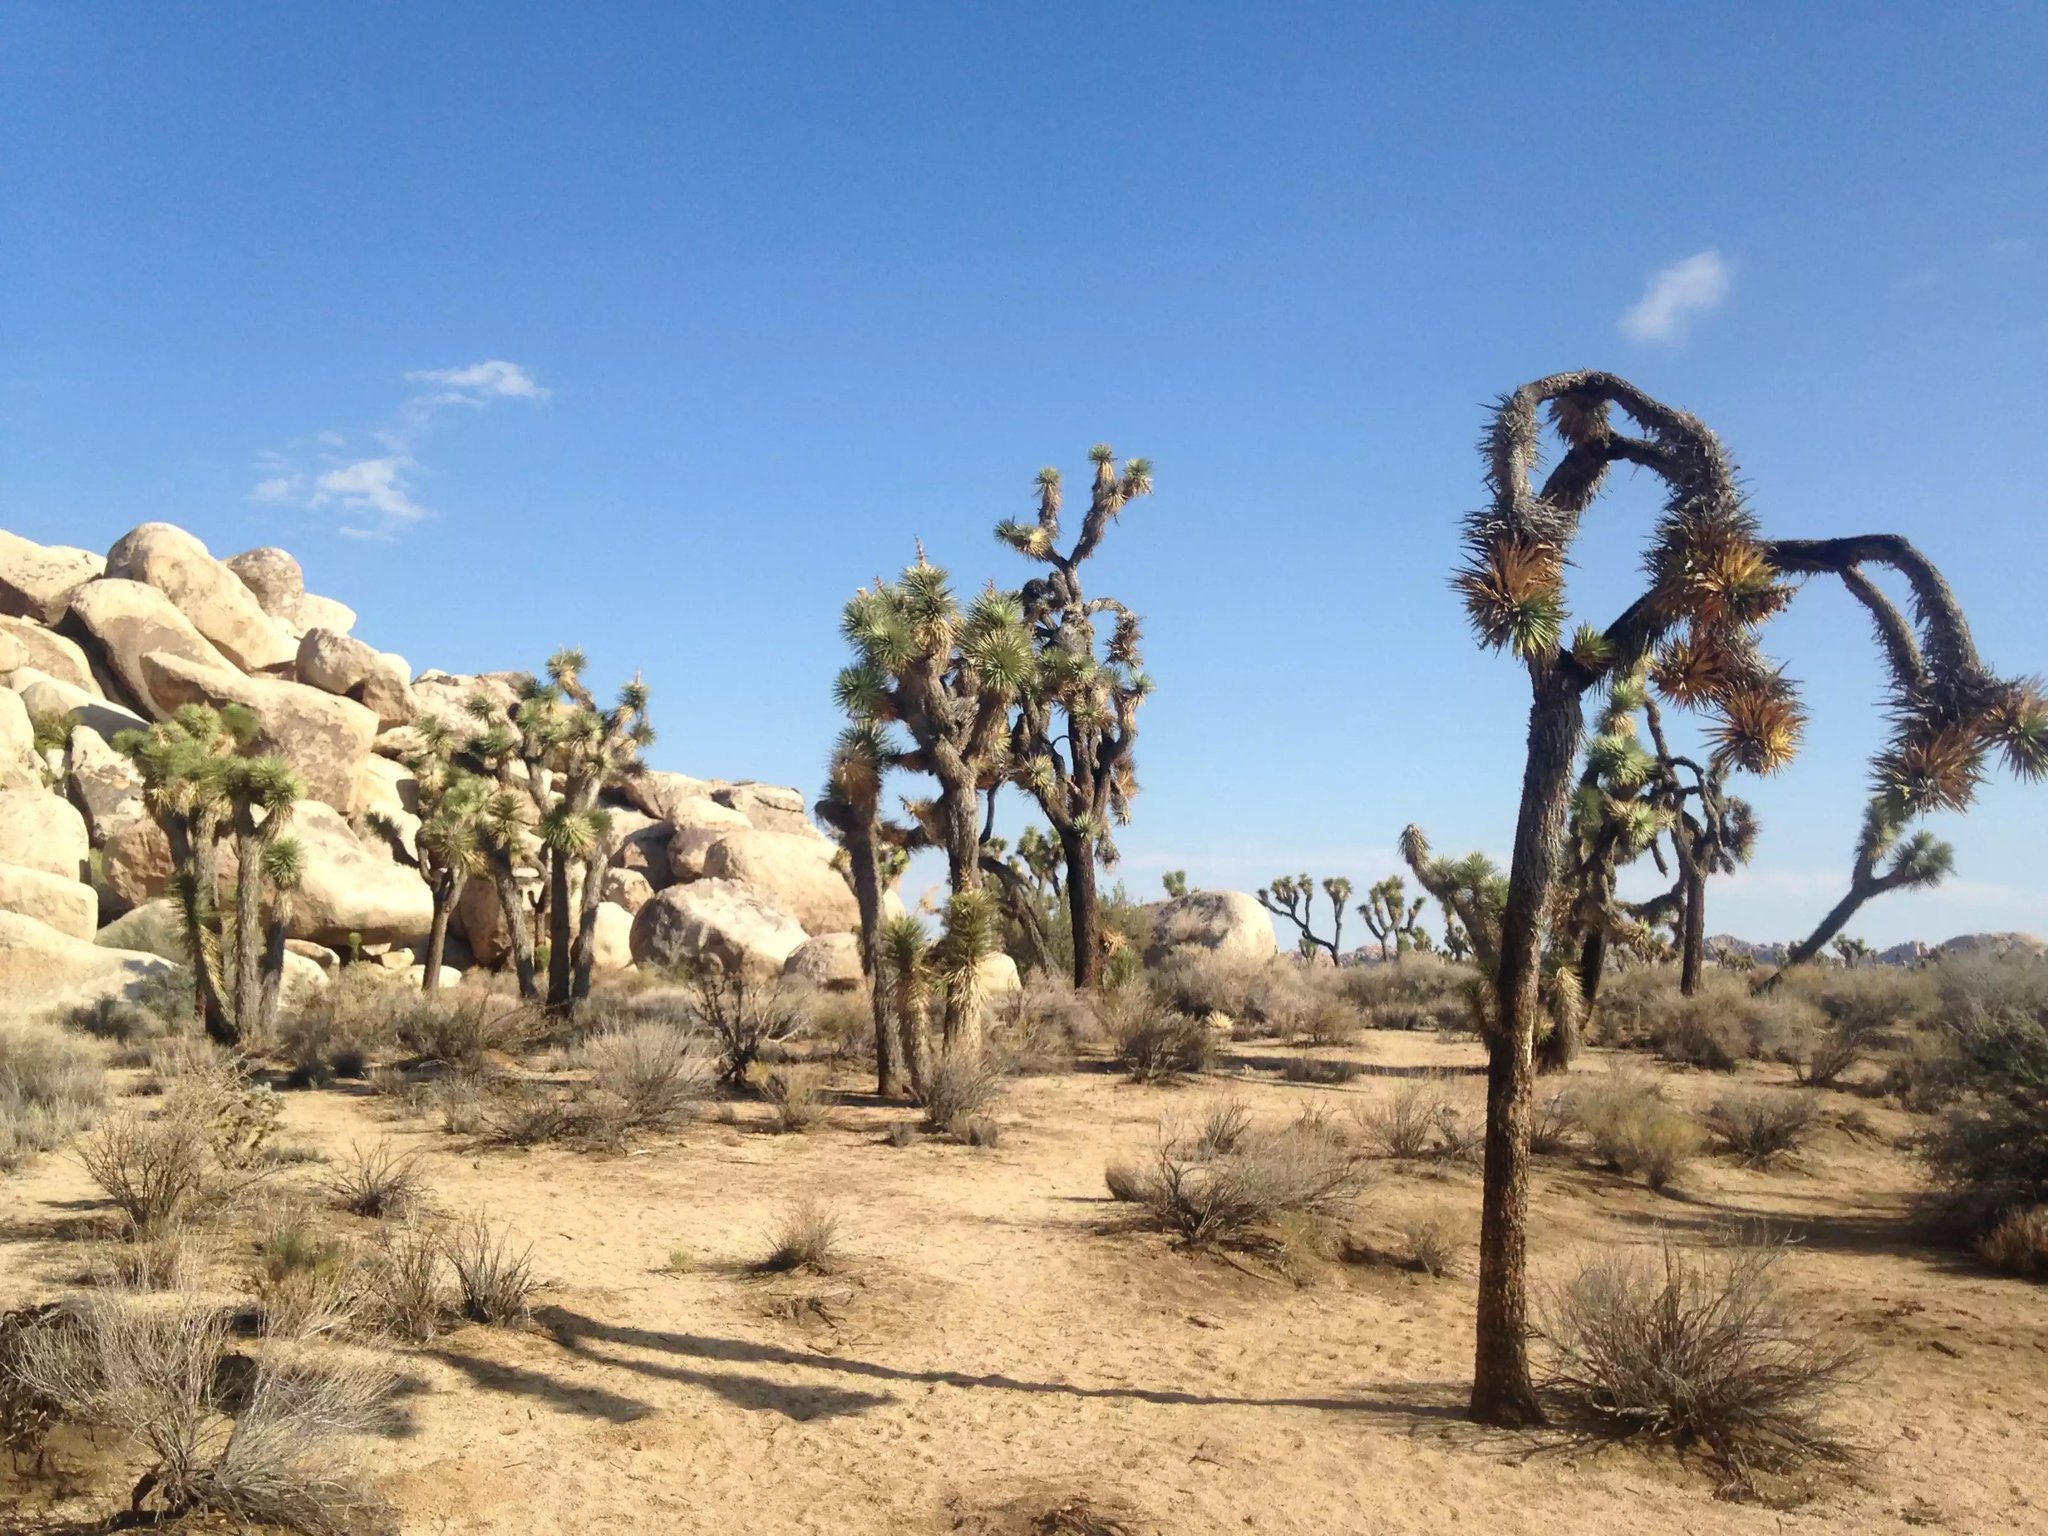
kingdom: Plantae
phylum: Tracheophyta
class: Liliopsida
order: Asparagales
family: Asparagaceae
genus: Yucca
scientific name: Yucca brevifolia
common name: Joshua tree
